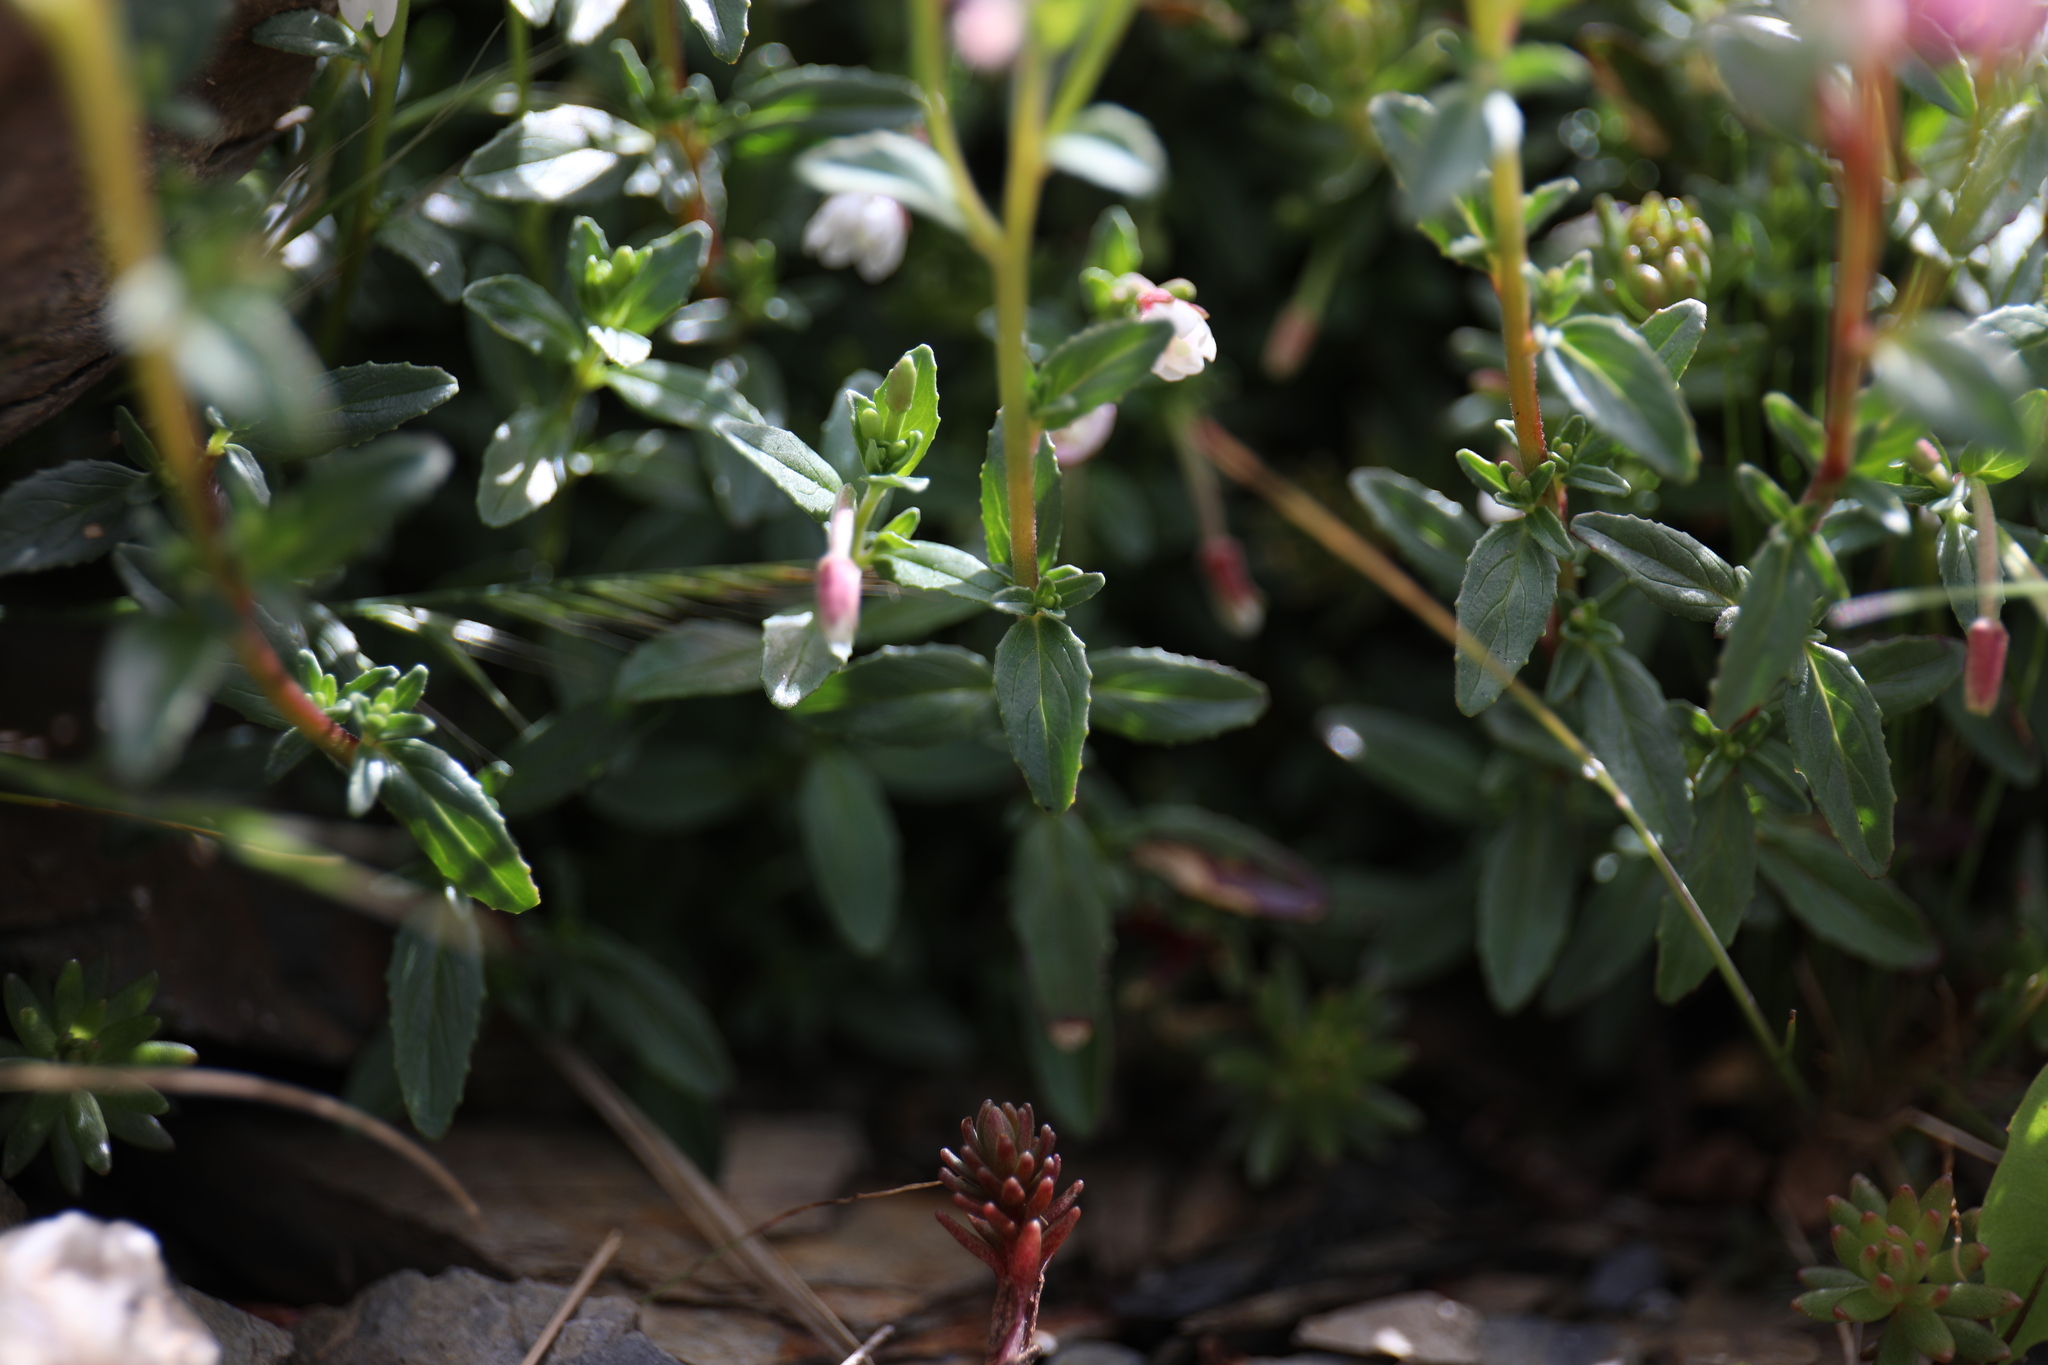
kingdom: Plantae
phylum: Tracheophyta
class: Magnoliopsida
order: Myrtales
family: Onagraceae
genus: Epilobium
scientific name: Epilobium hohuanense
